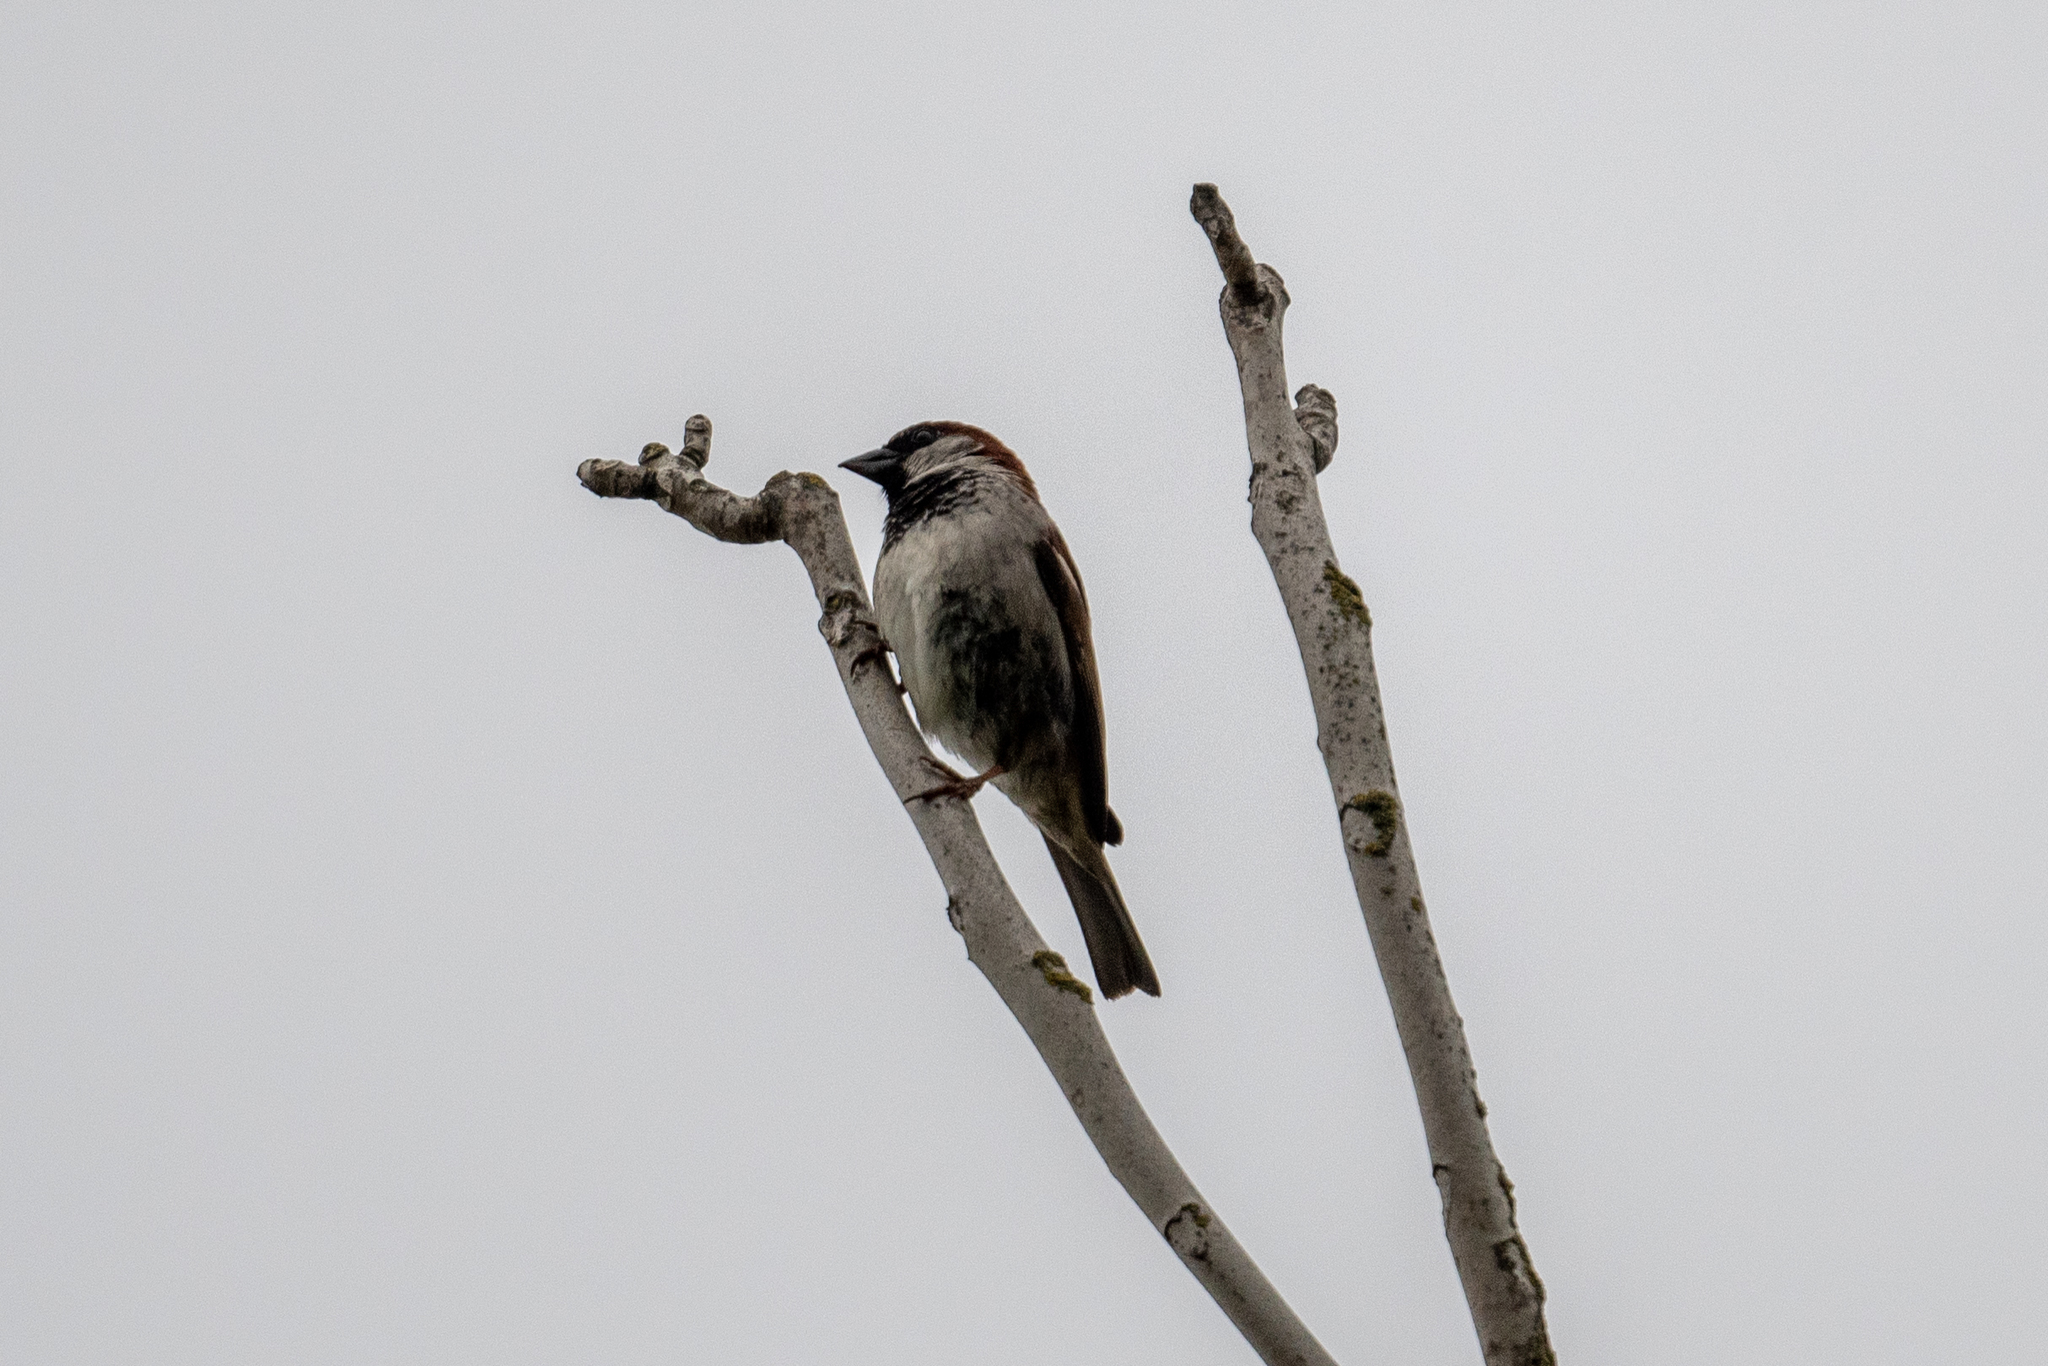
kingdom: Animalia
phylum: Chordata
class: Aves
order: Passeriformes
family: Passeridae
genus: Passer
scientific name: Passer domesticus
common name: House sparrow
